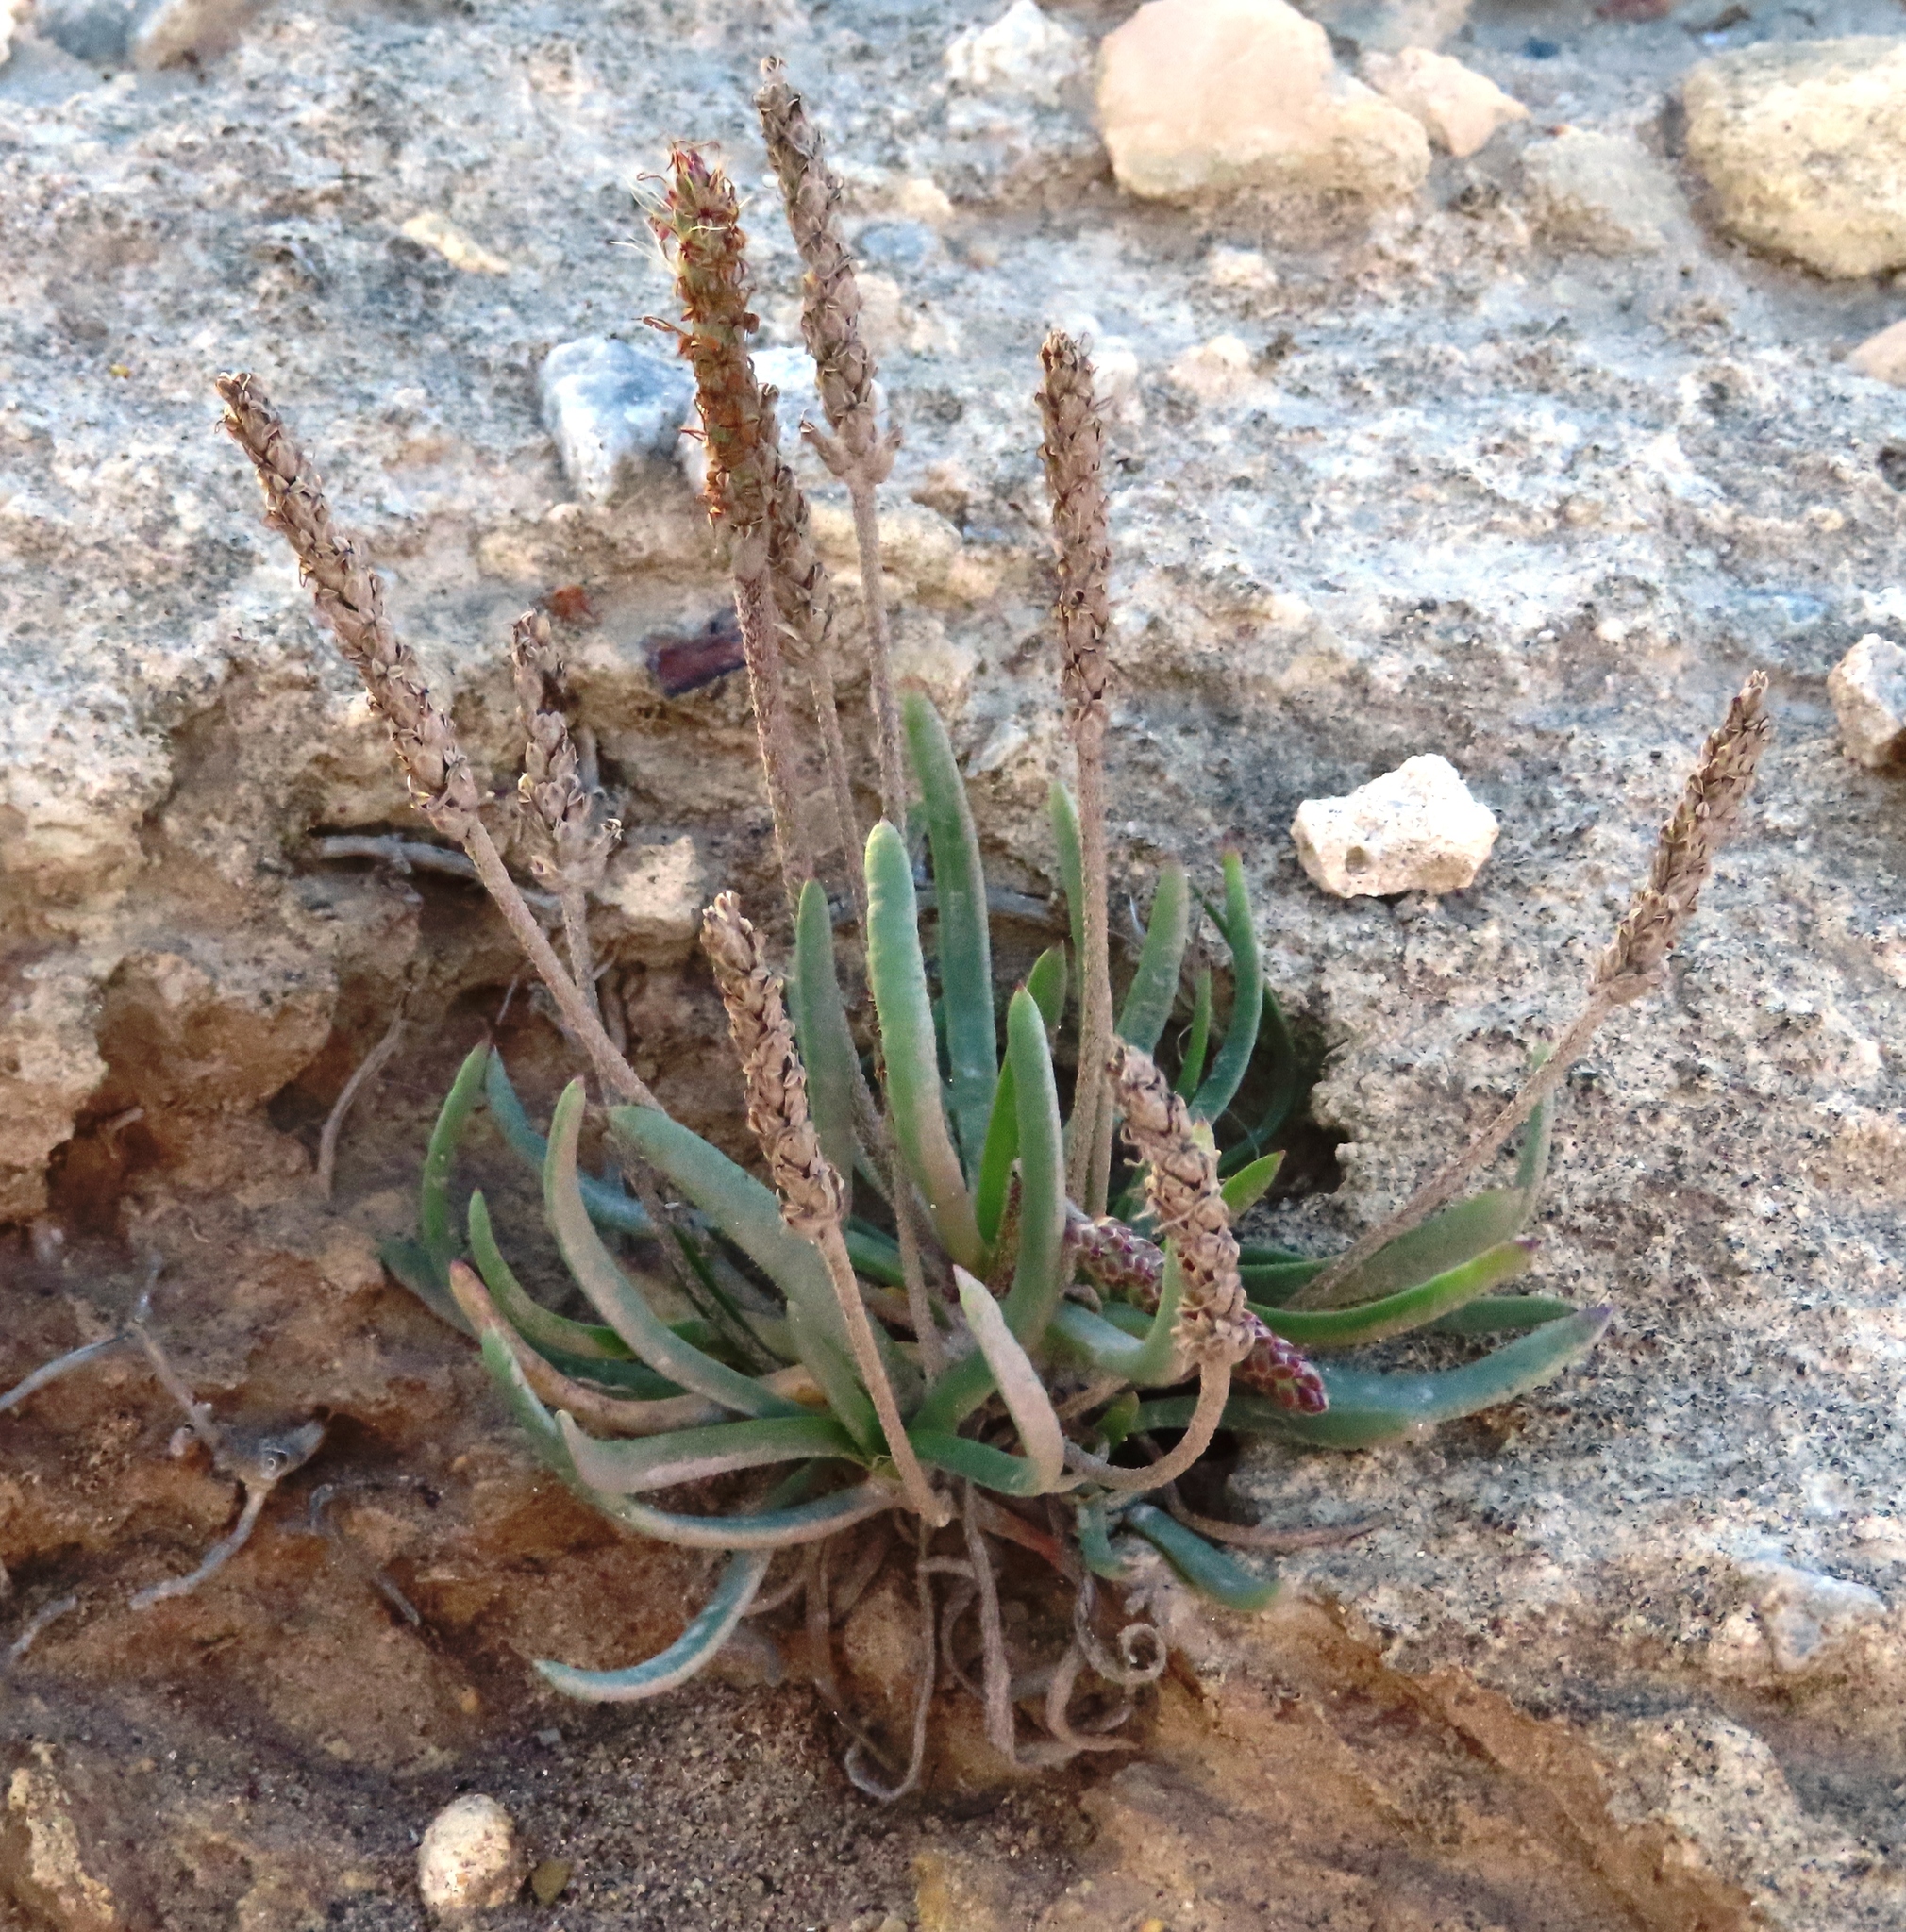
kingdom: Plantae
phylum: Tracheophyta
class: Magnoliopsida
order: Lamiales
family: Plantaginaceae
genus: Plantago
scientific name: Plantago carnosa
